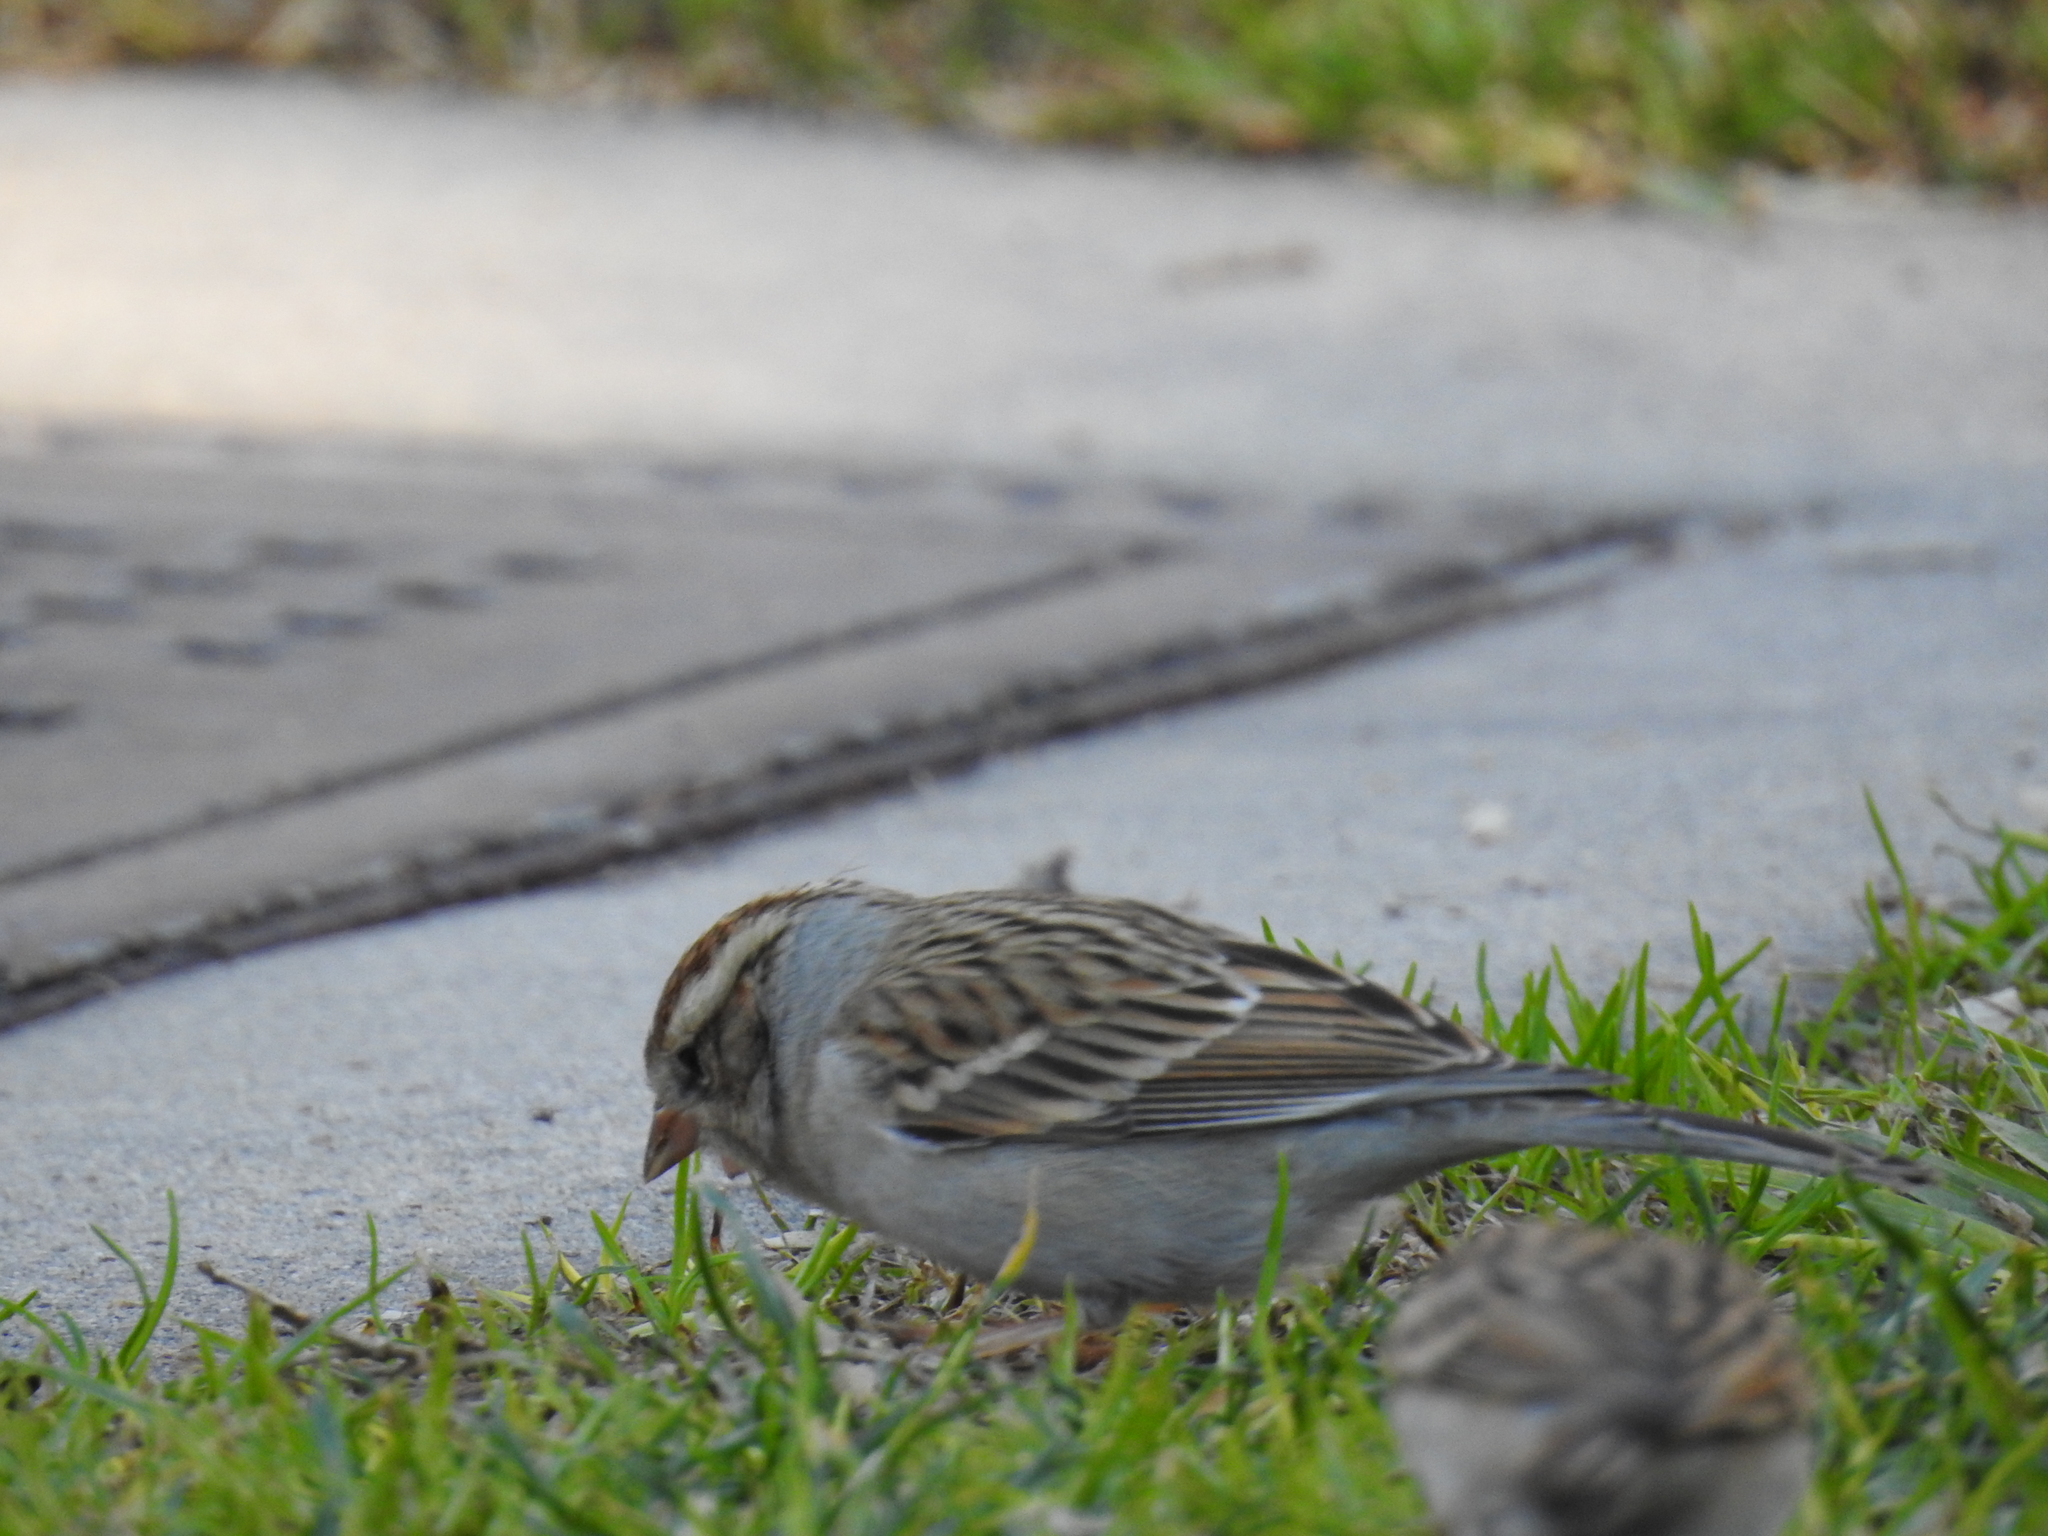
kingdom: Animalia
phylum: Chordata
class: Aves
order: Passeriformes
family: Passerellidae
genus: Spizella
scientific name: Spizella passerina
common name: Chipping sparrow
